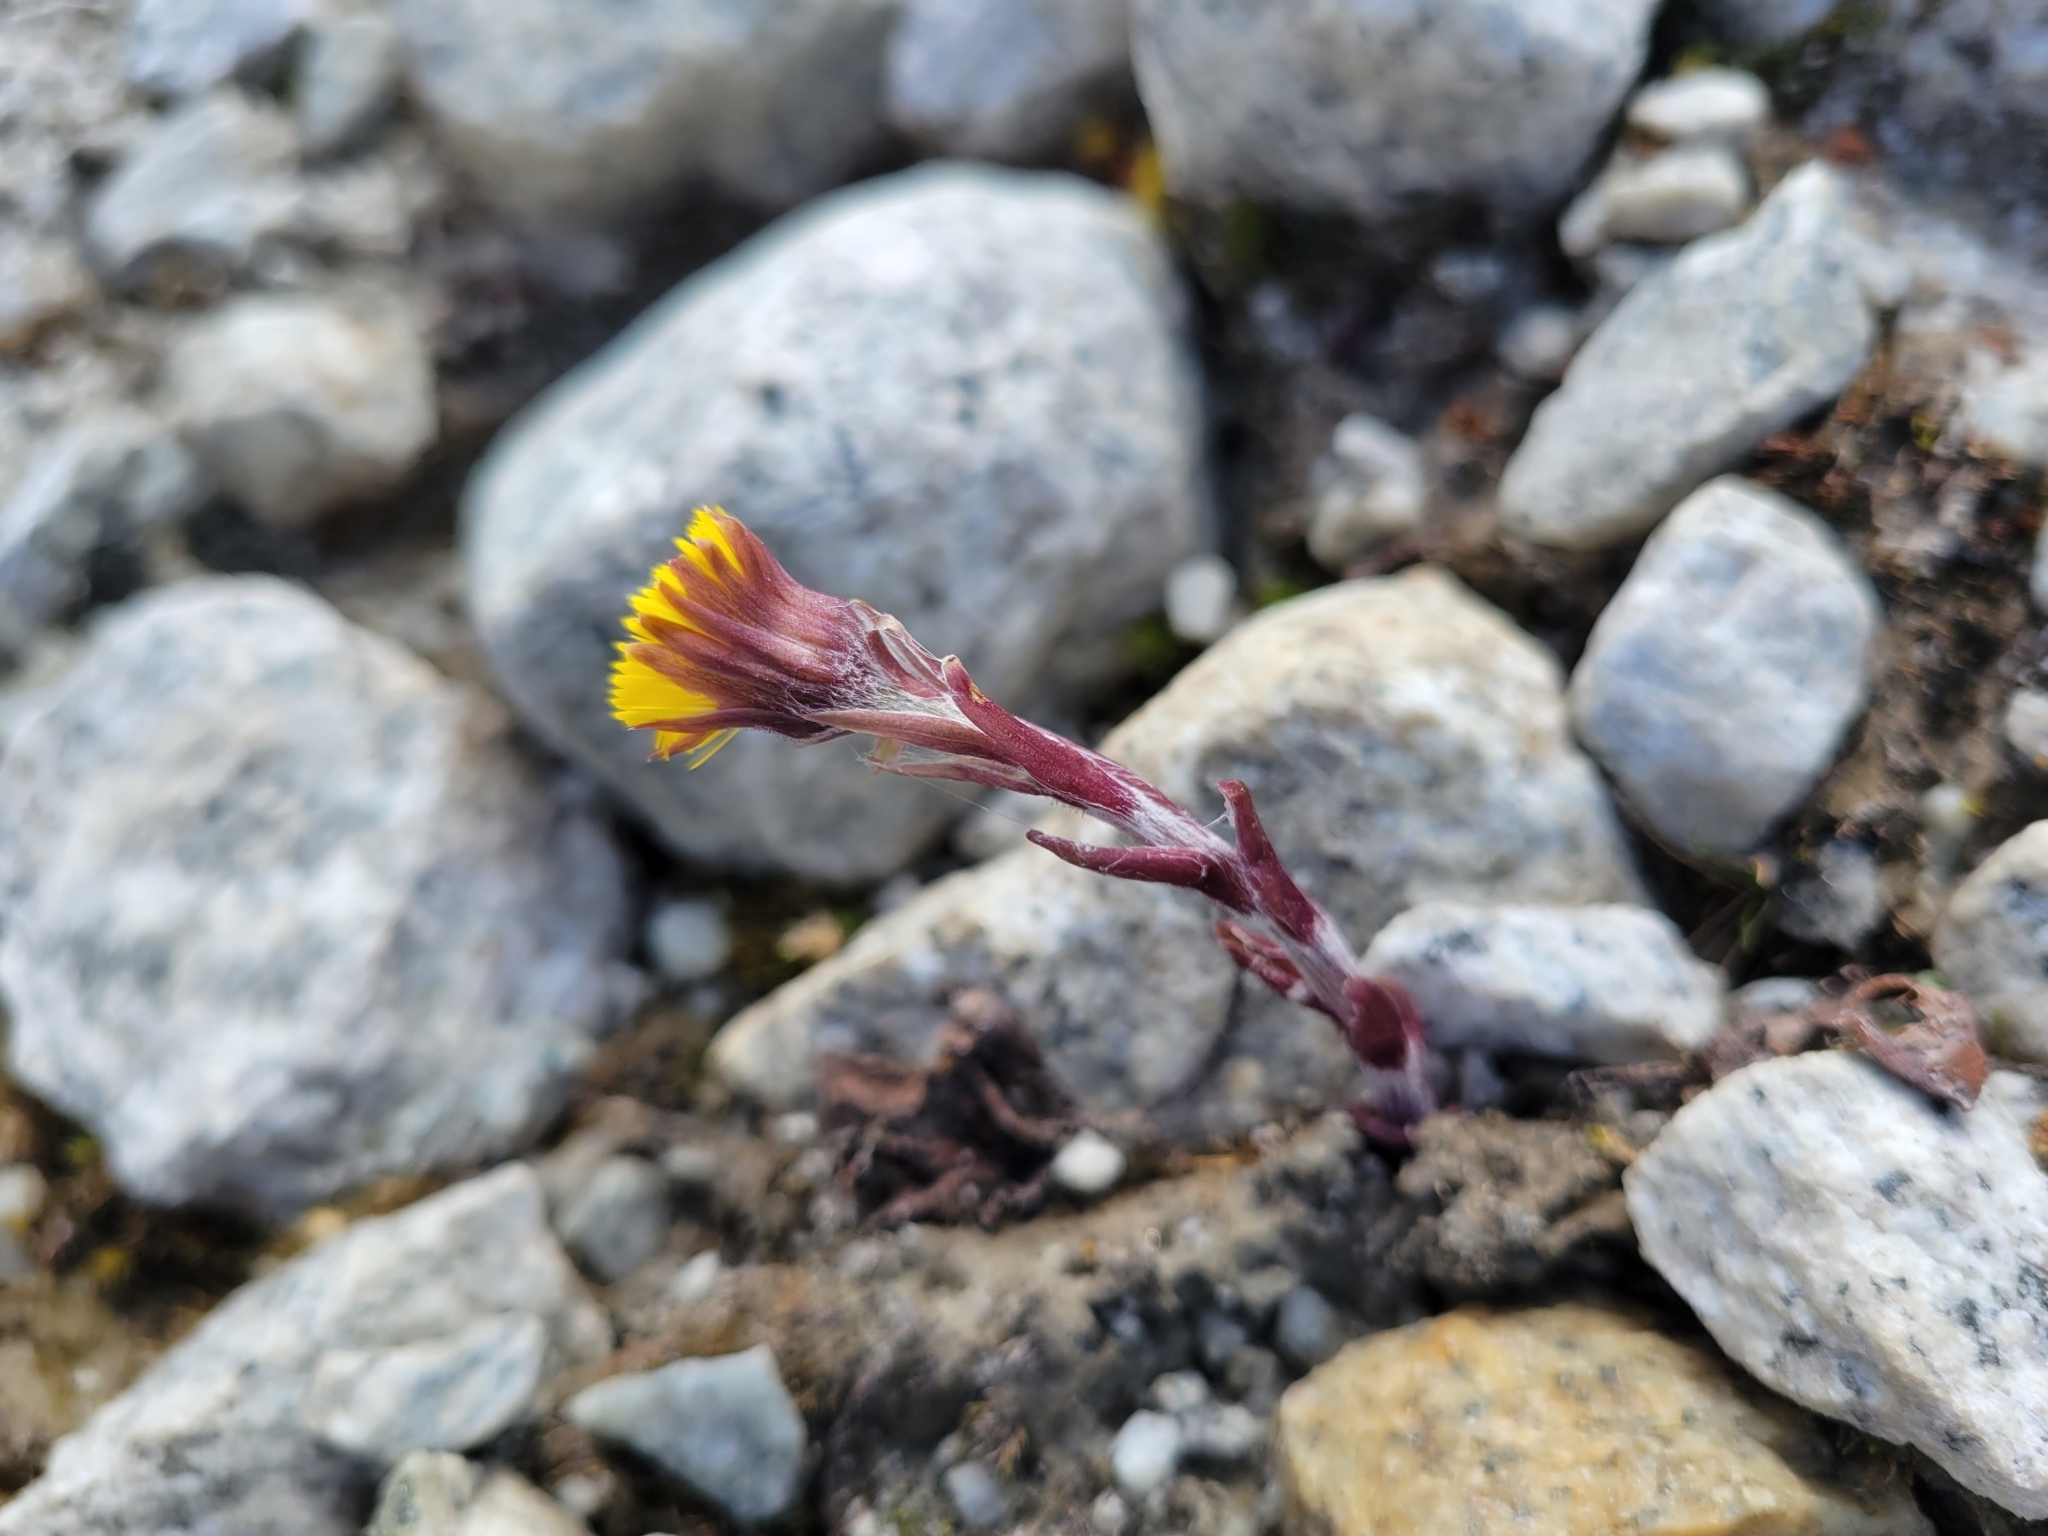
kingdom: Plantae
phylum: Tracheophyta
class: Magnoliopsida
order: Asterales
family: Asteraceae
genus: Tussilago
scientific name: Tussilago farfara
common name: Coltsfoot
